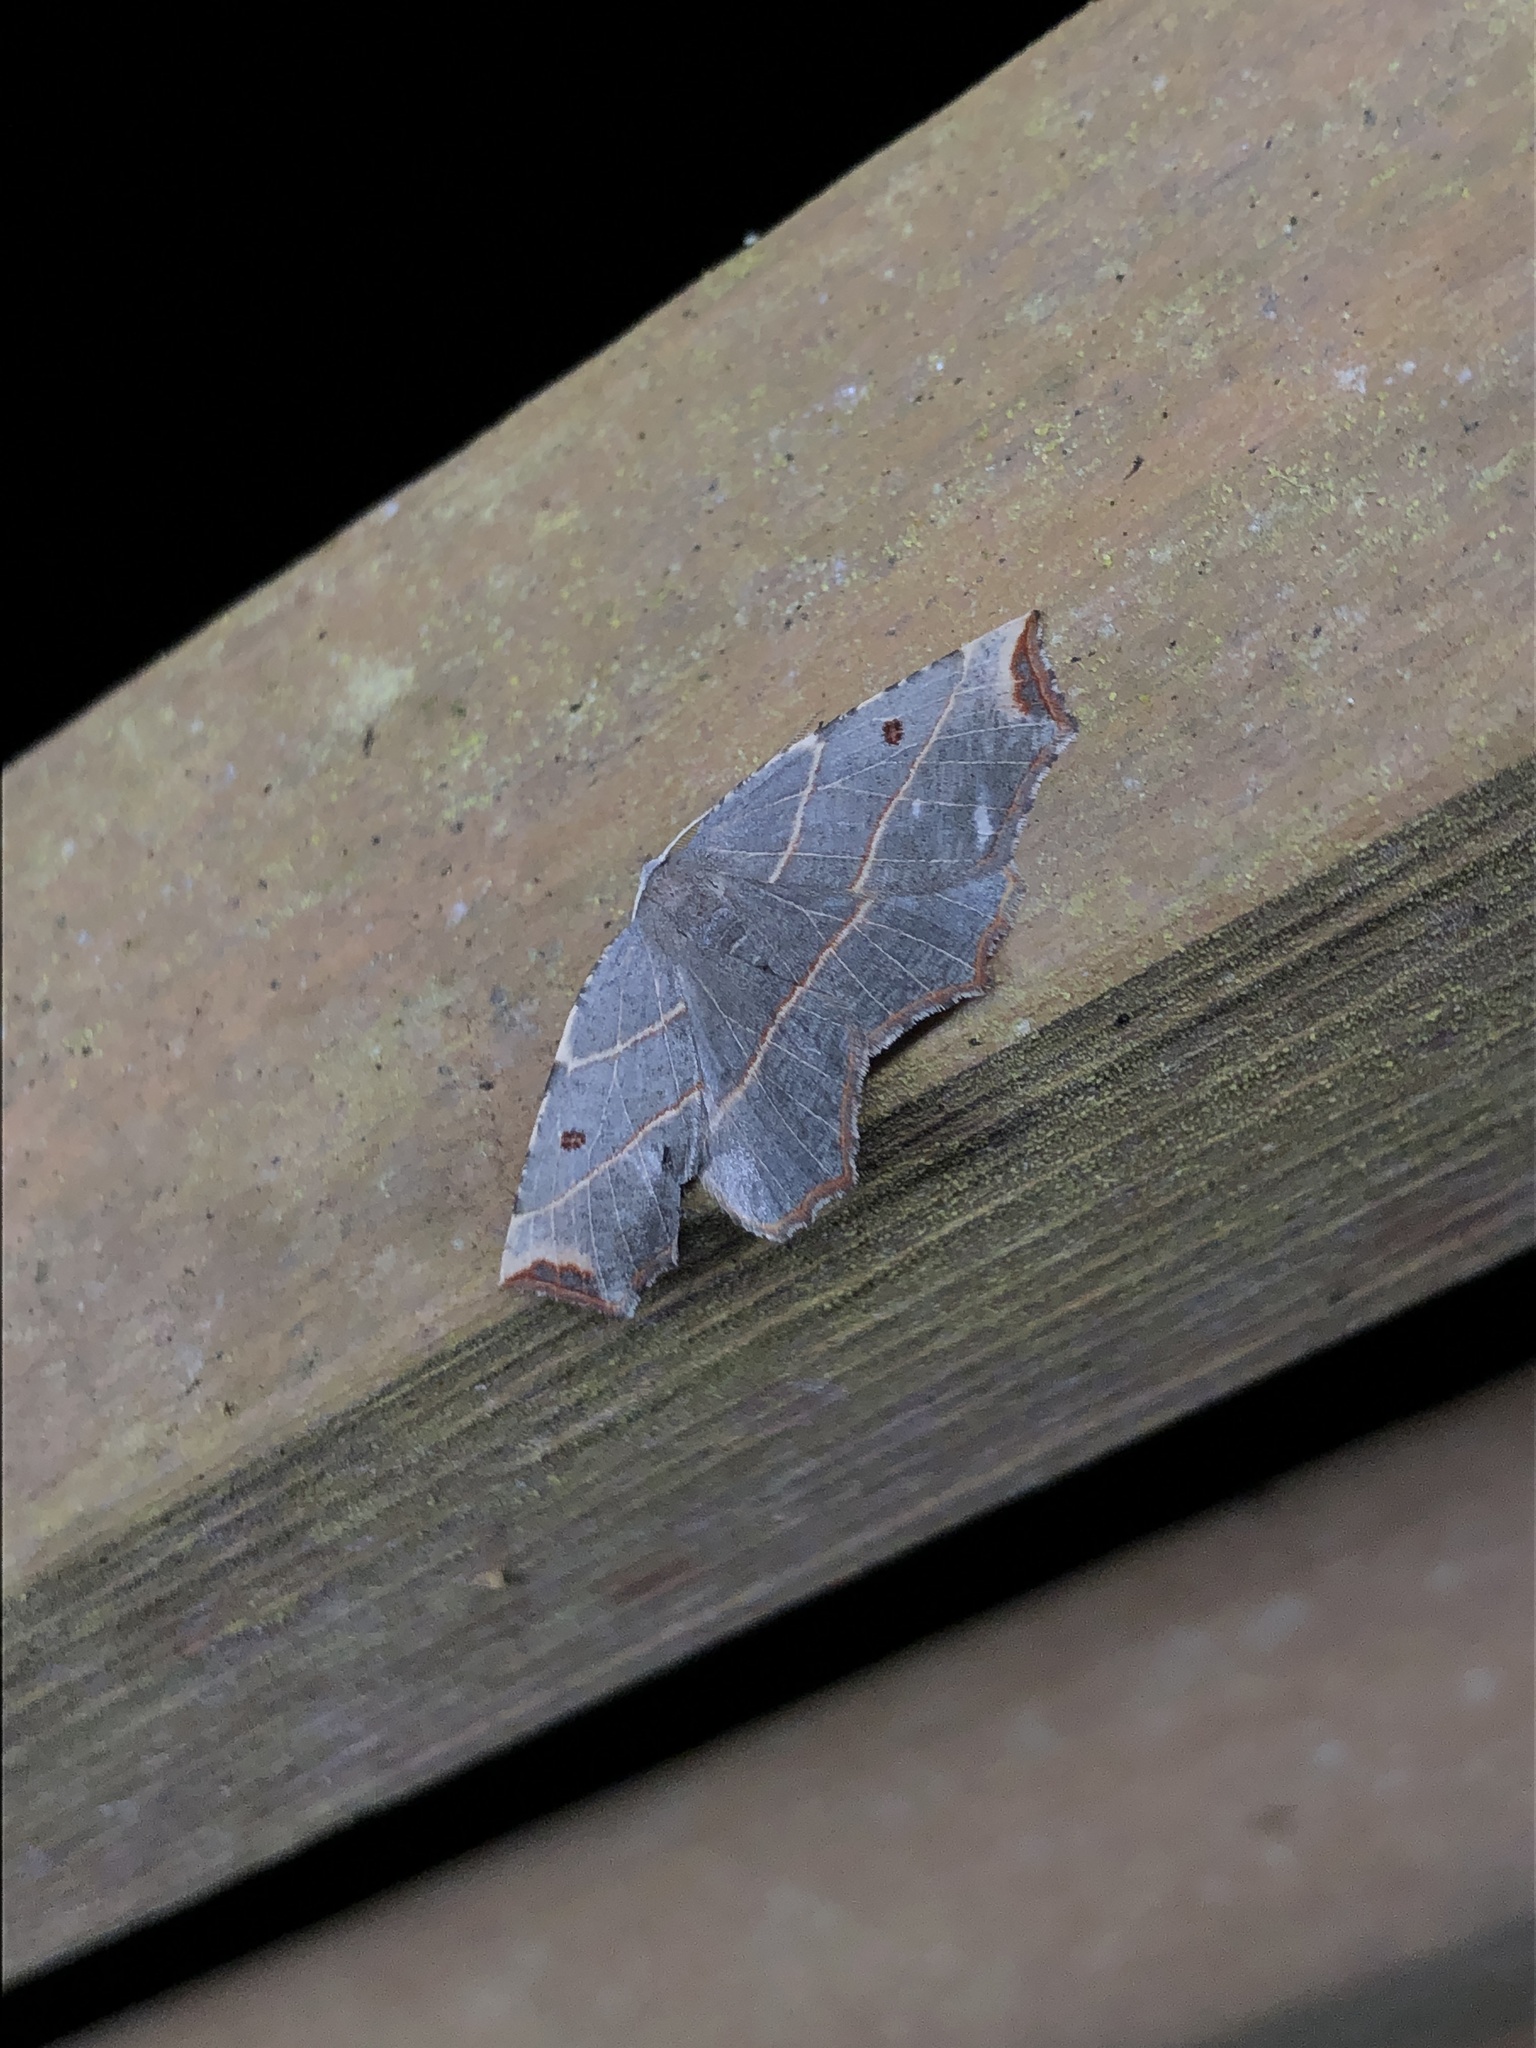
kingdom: Animalia
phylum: Arthropoda
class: Insecta
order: Lepidoptera
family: Geometridae
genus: Metanema
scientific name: Metanema inatomaria
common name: Pale metanema
